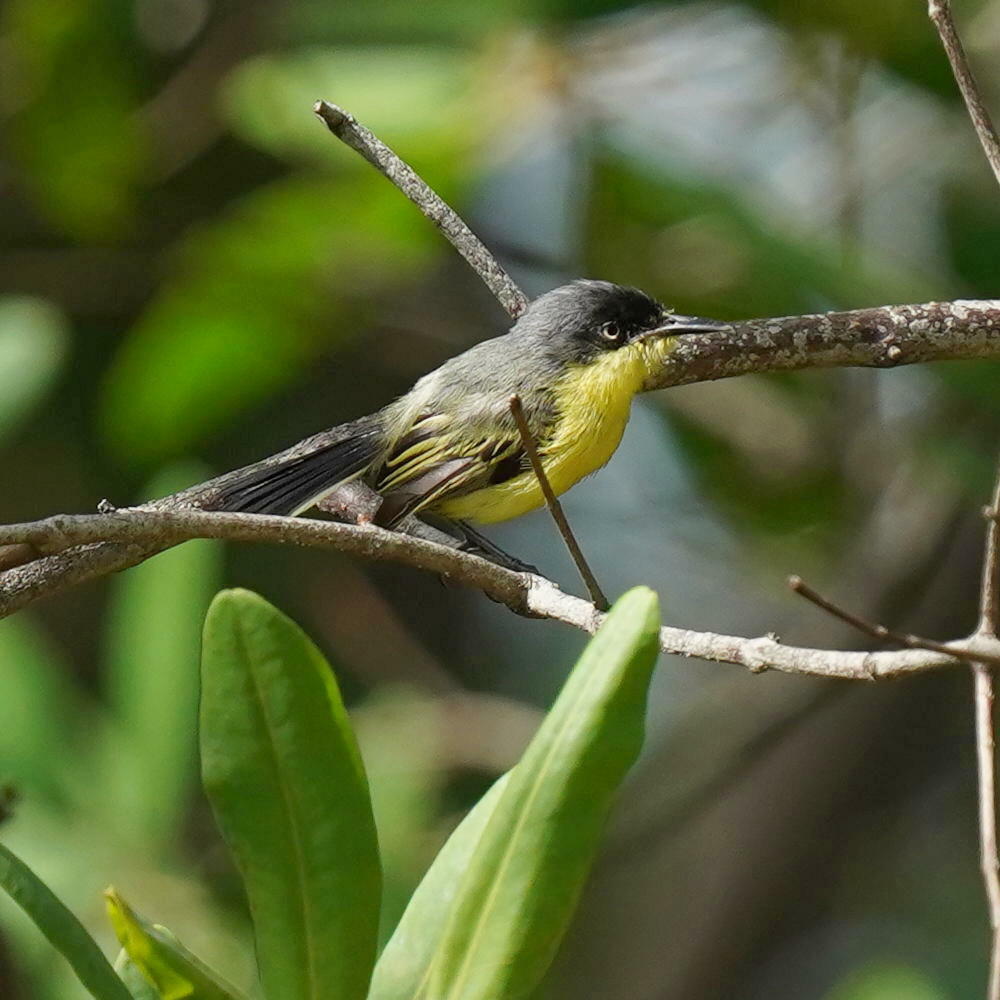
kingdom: Animalia
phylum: Chordata
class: Aves
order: Passeriformes
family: Tyrannidae
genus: Todirostrum
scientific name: Todirostrum cinereum
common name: Common tody-flycatcher
